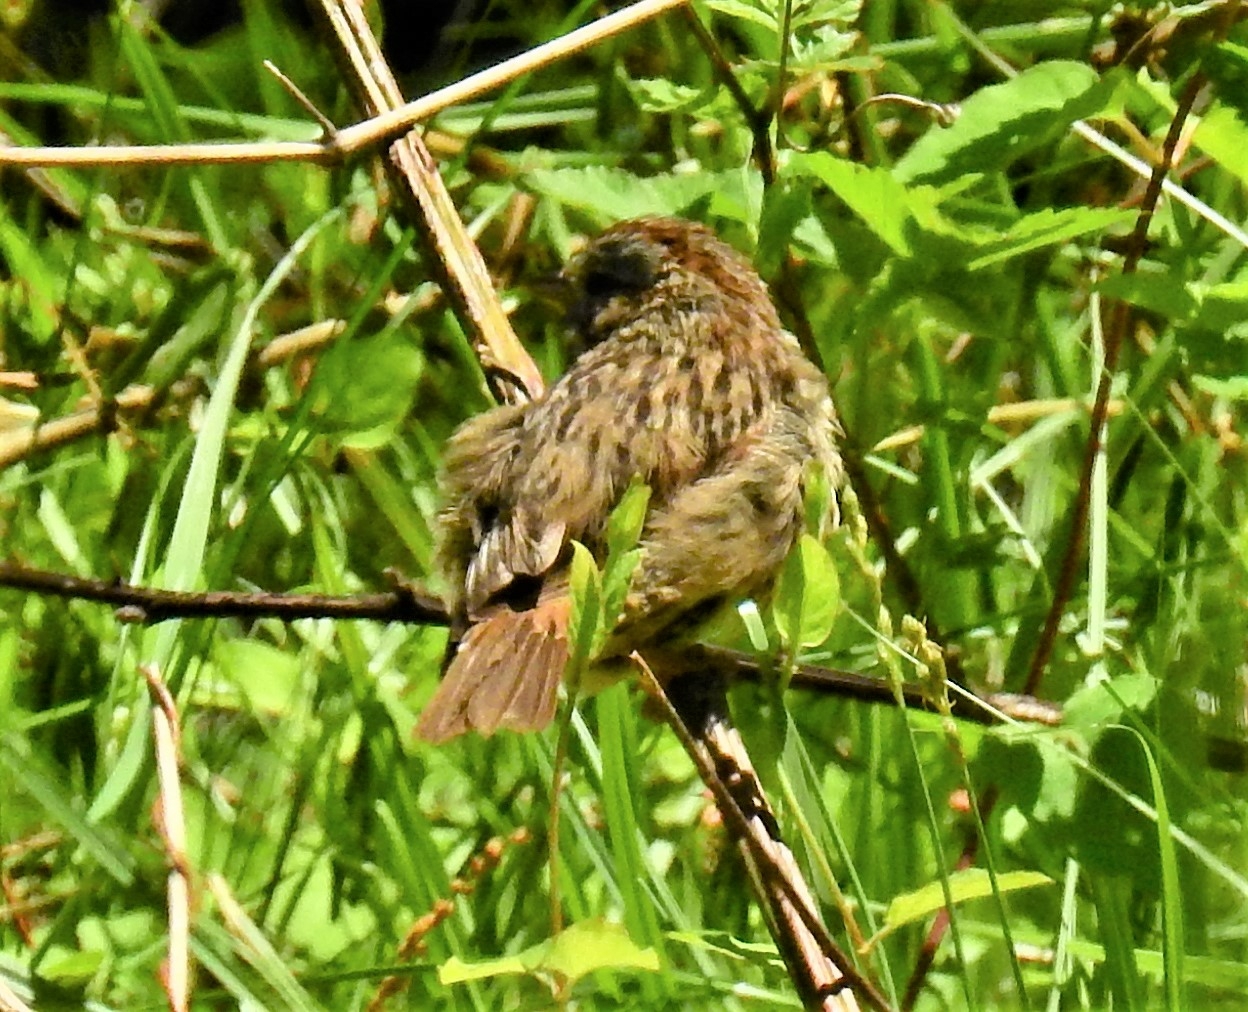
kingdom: Animalia
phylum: Chordata
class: Aves
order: Passeriformes
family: Passerellidae
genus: Melospiza
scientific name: Melospiza lincolnii
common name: Lincoln's sparrow
